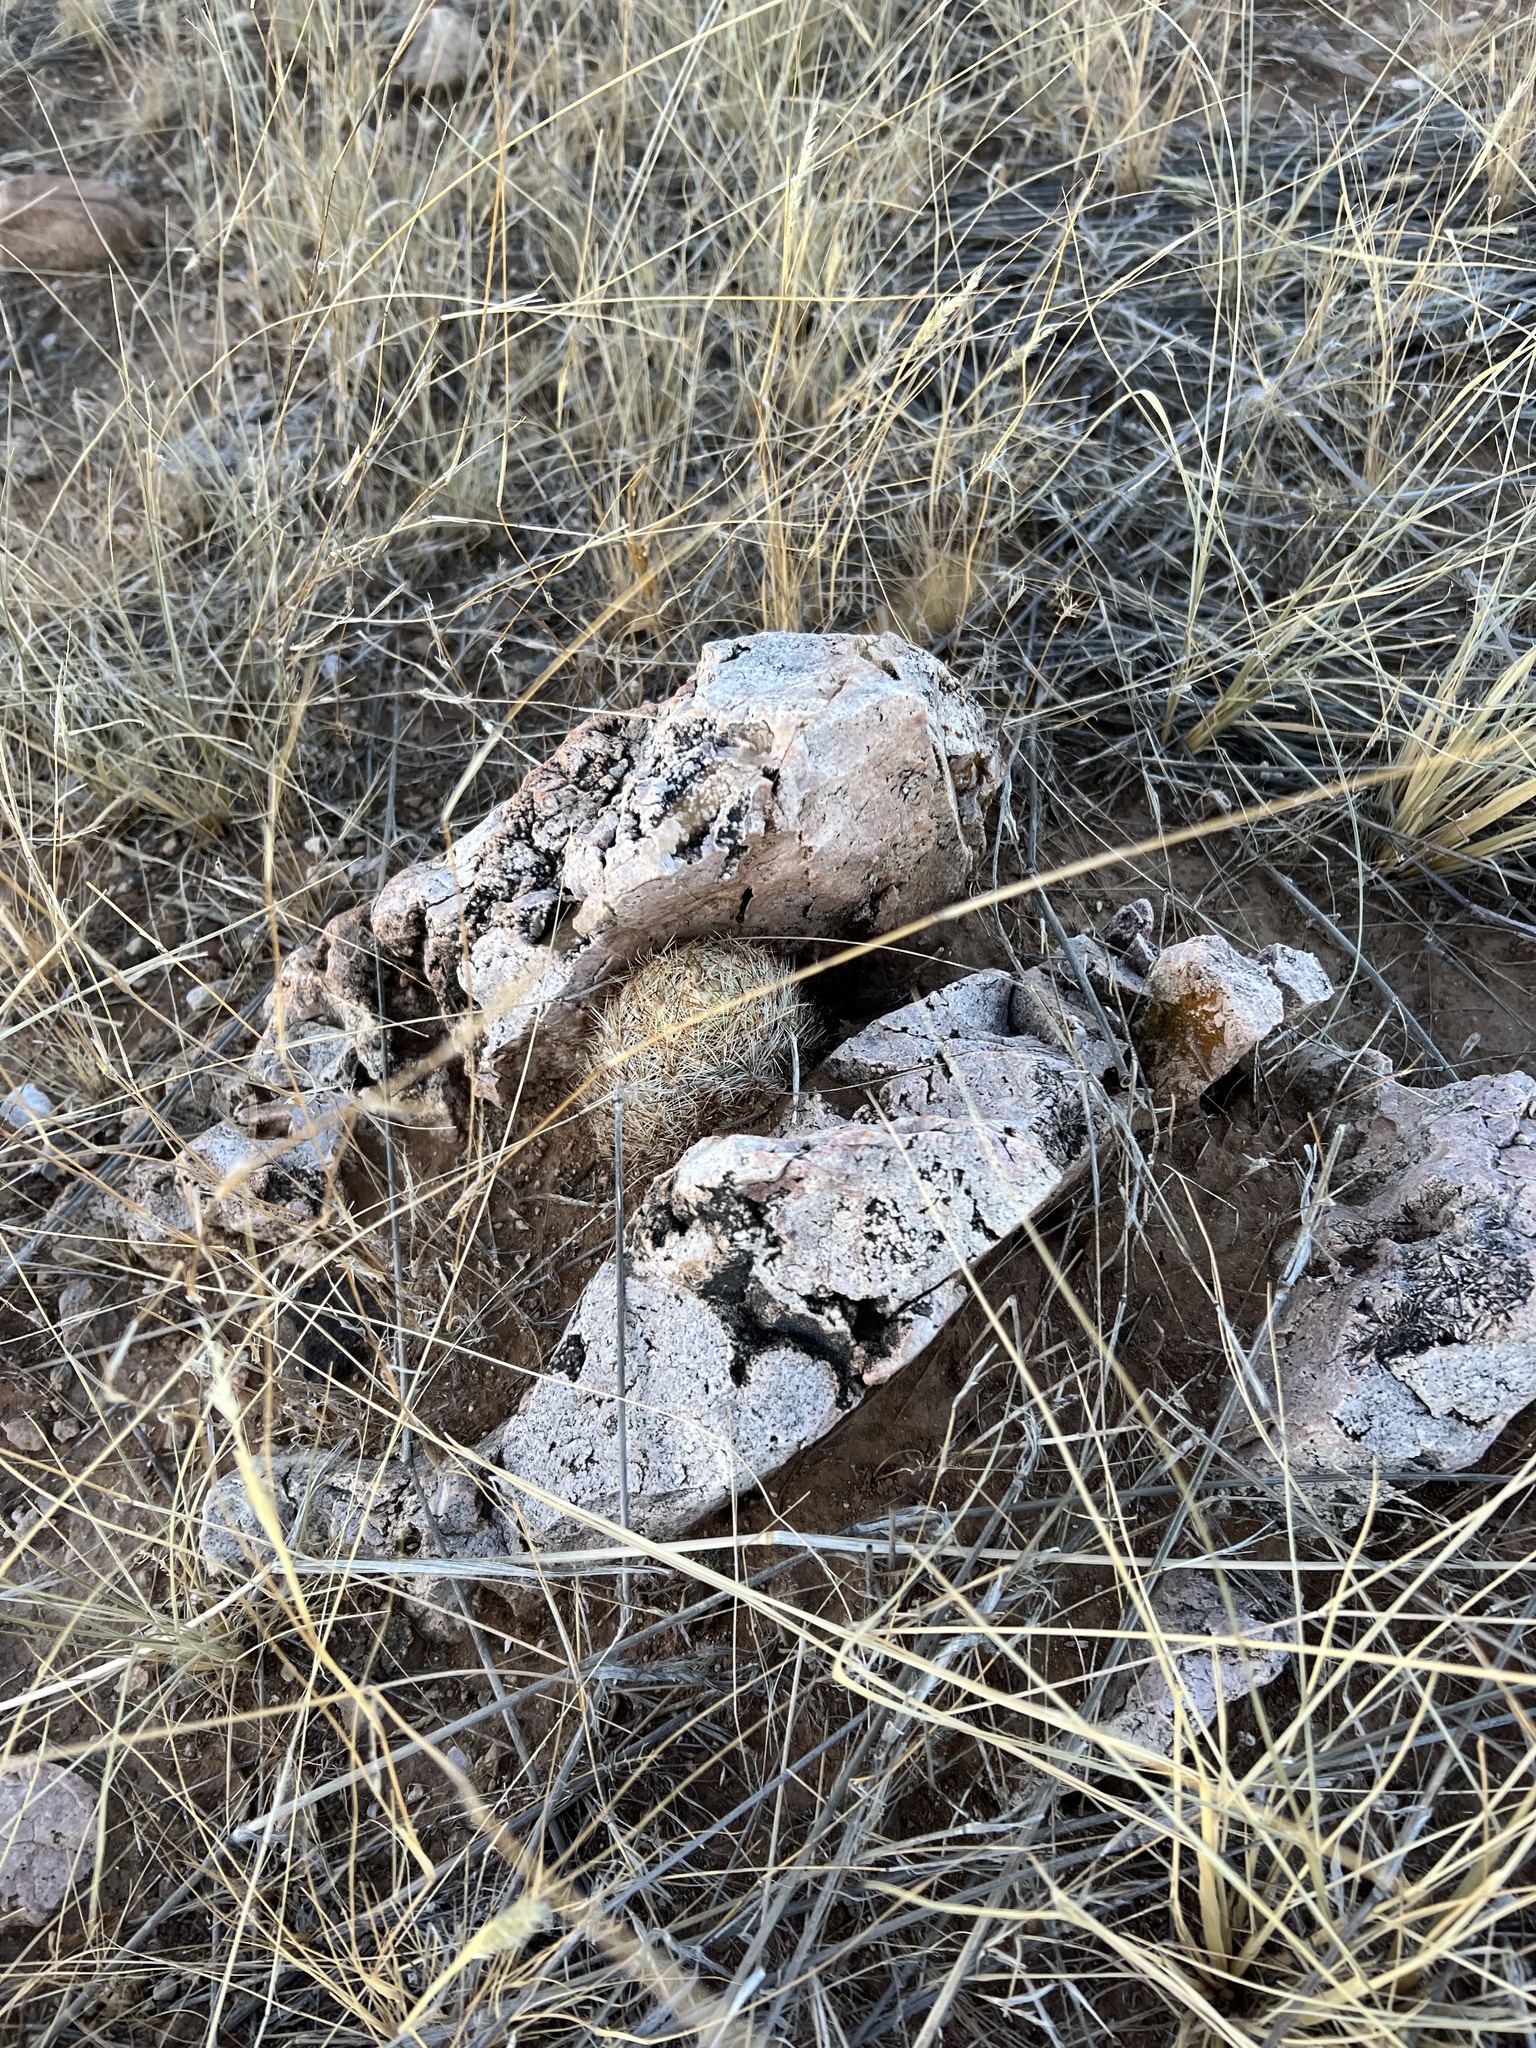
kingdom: Plantae
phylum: Tracheophyta
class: Magnoliopsida
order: Caryophyllales
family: Cactaceae
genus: Pelecyphora
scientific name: Pelecyphora vivipara
